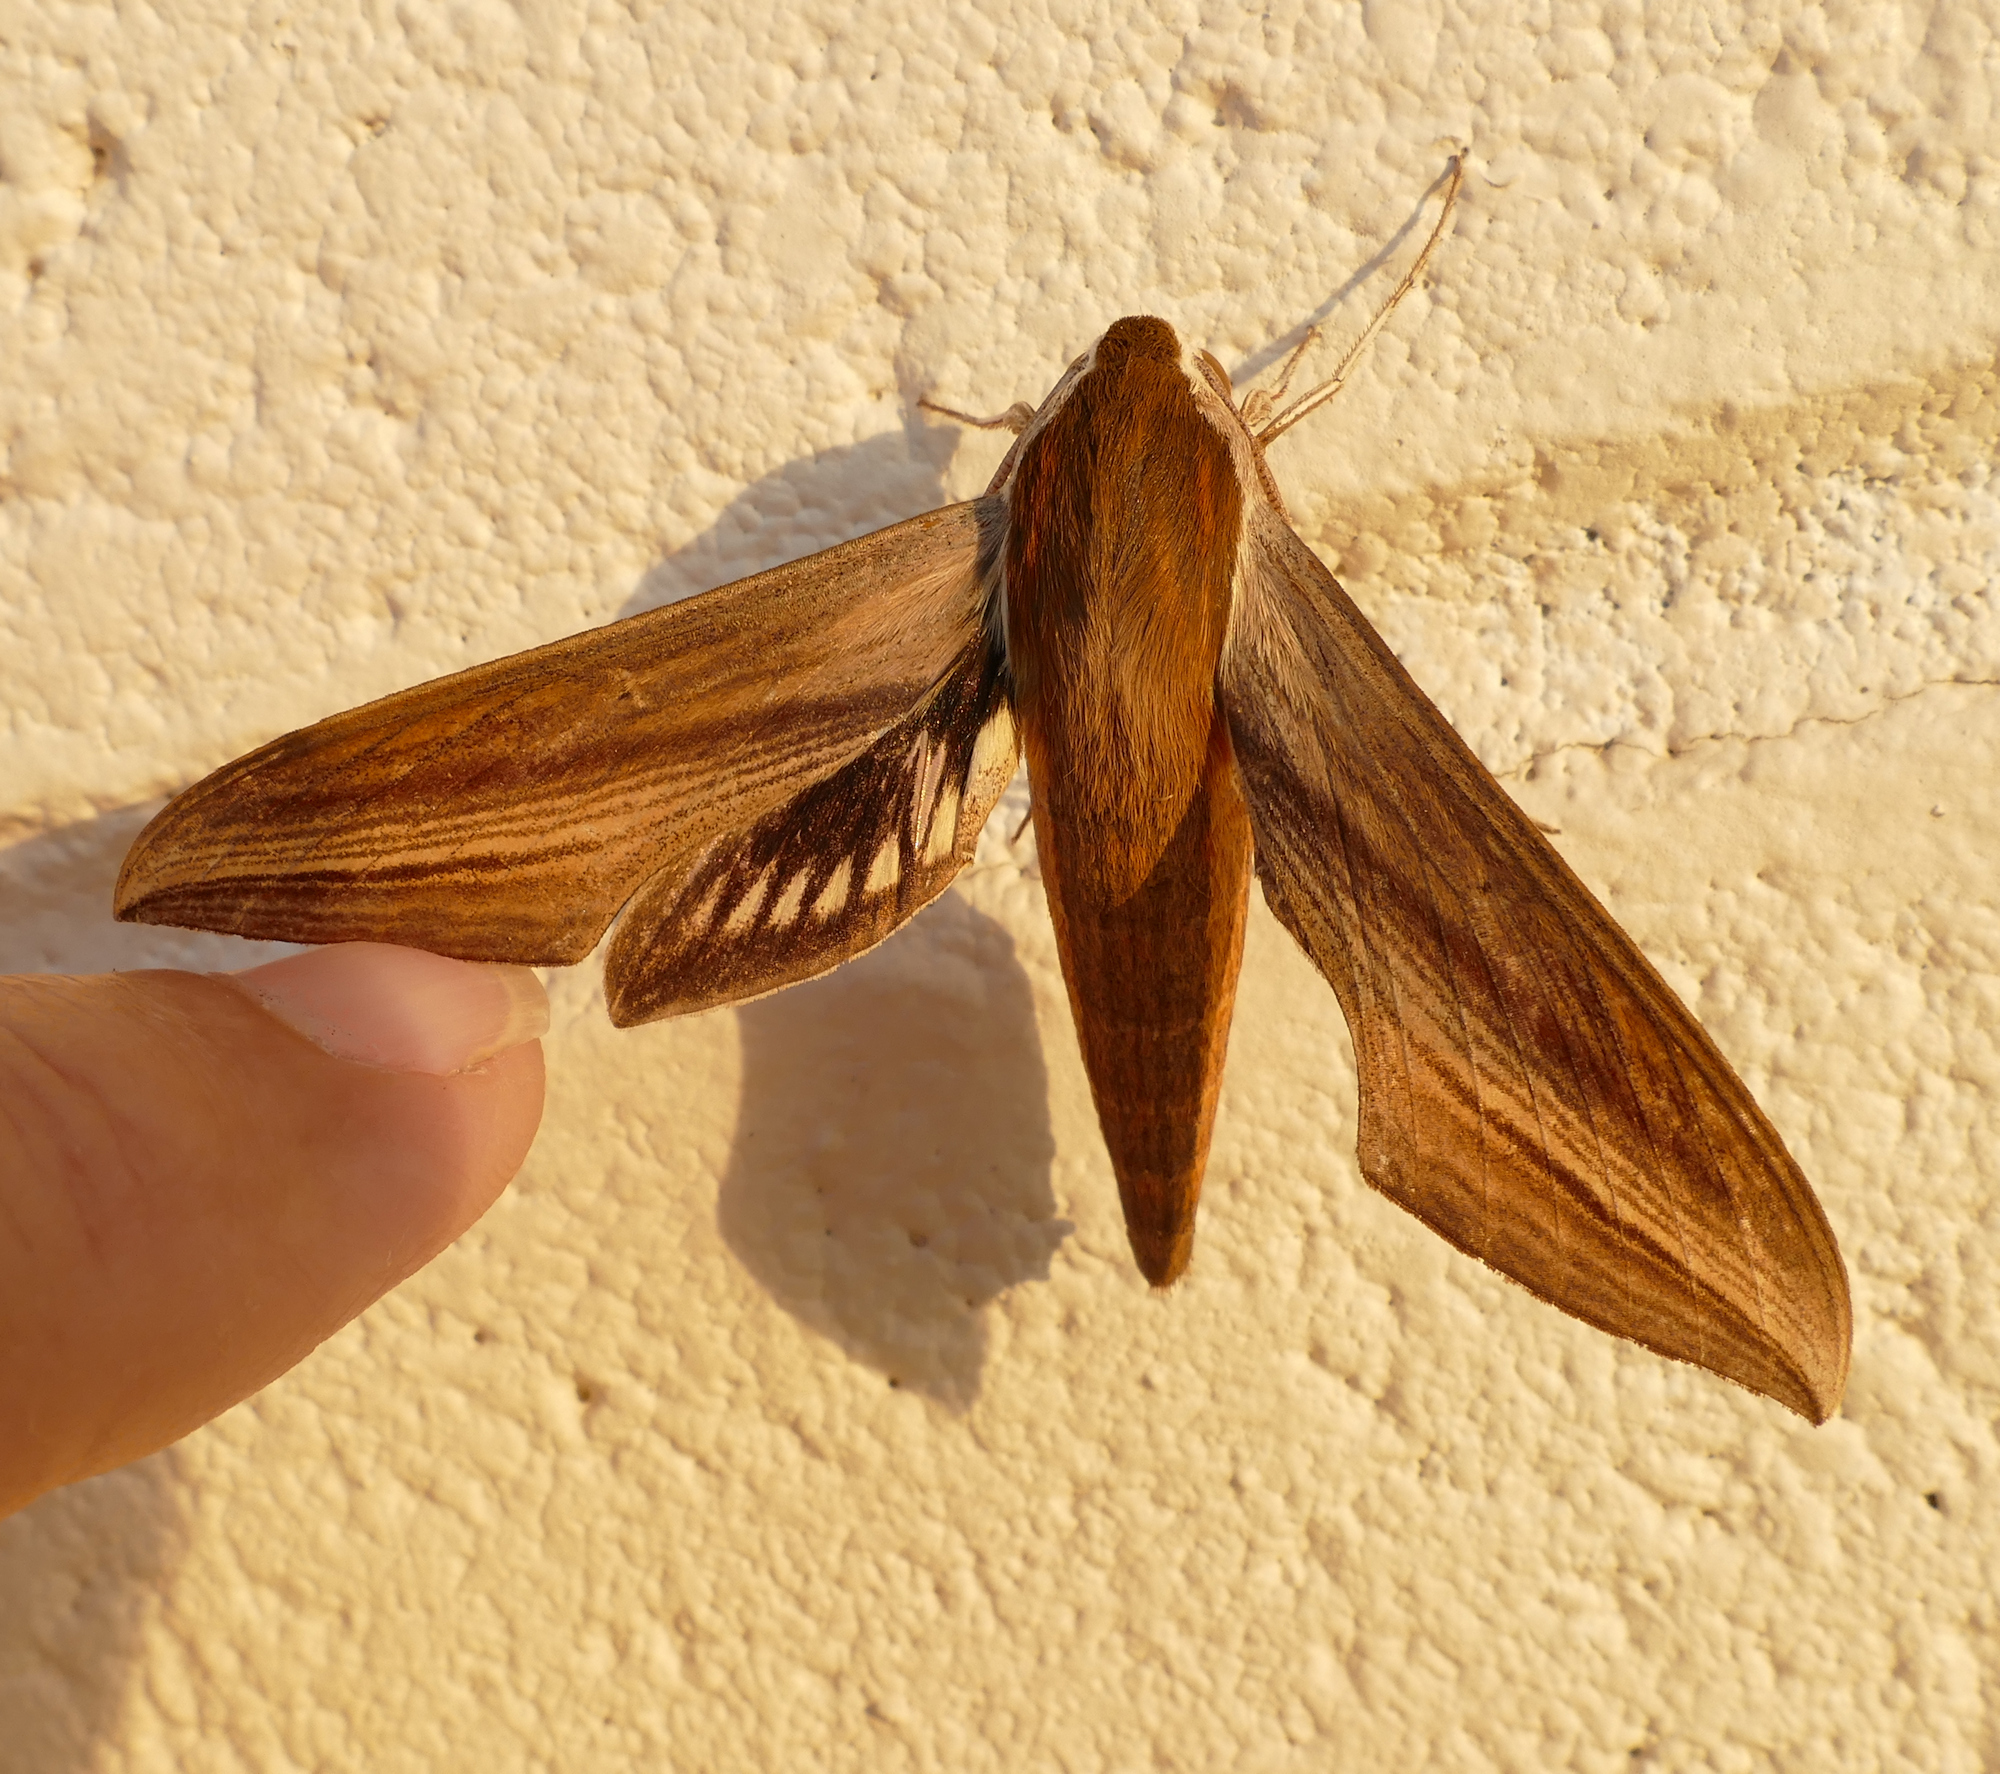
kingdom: Animalia
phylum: Arthropoda
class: Insecta
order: Lepidoptera
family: Sphingidae
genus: Xylophanes
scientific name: Xylophanes tersa
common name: Tersa sphinx
